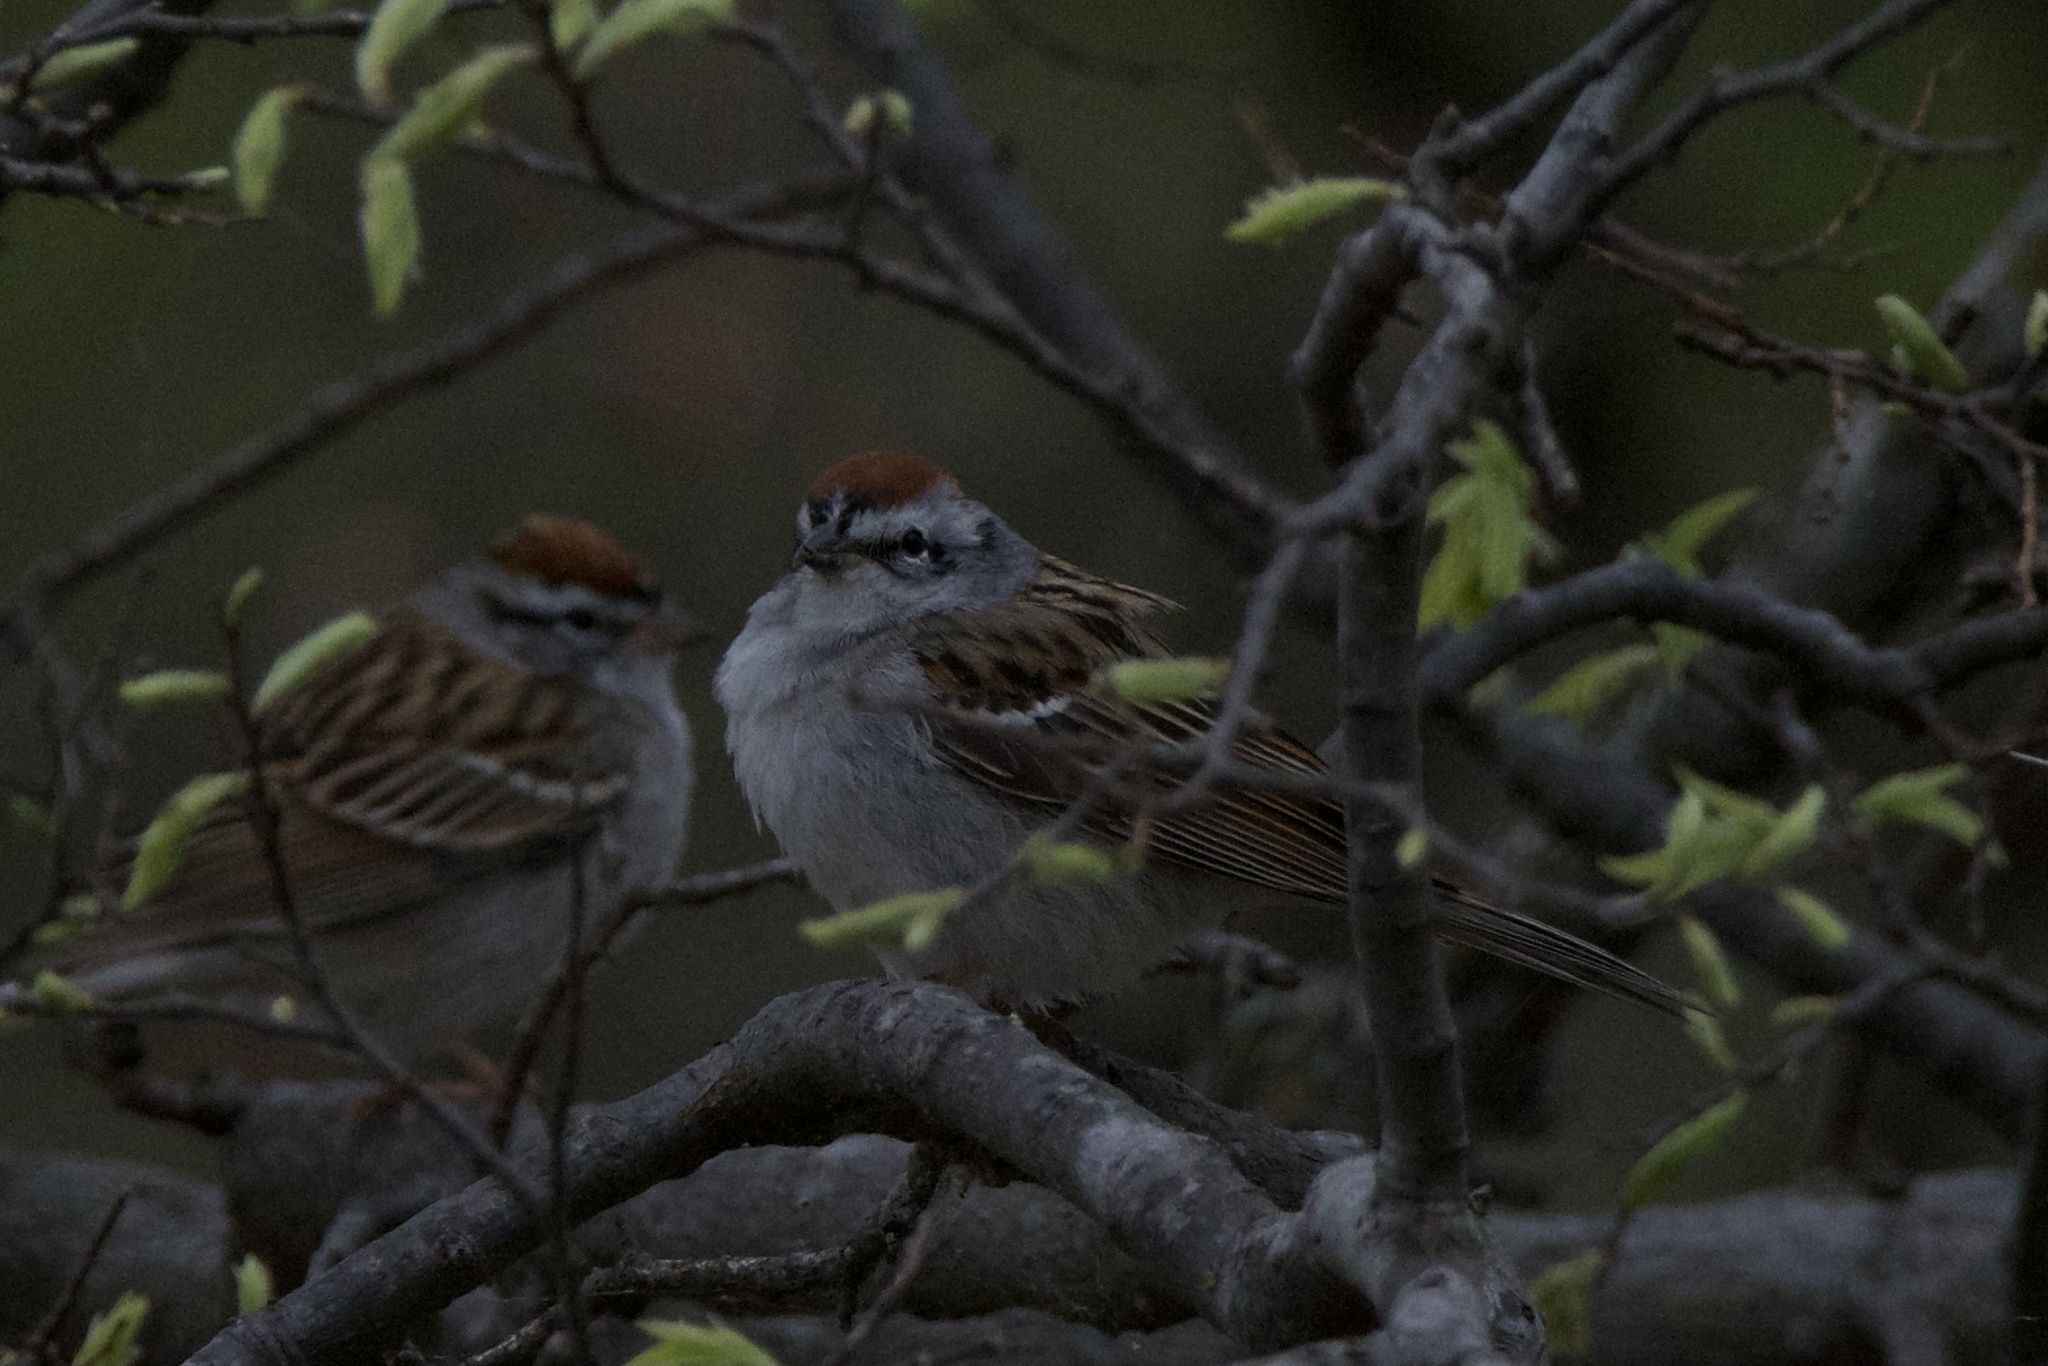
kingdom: Animalia
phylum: Chordata
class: Aves
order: Passeriformes
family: Passerellidae
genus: Spizella
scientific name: Spizella passerina
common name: Chipping sparrow
